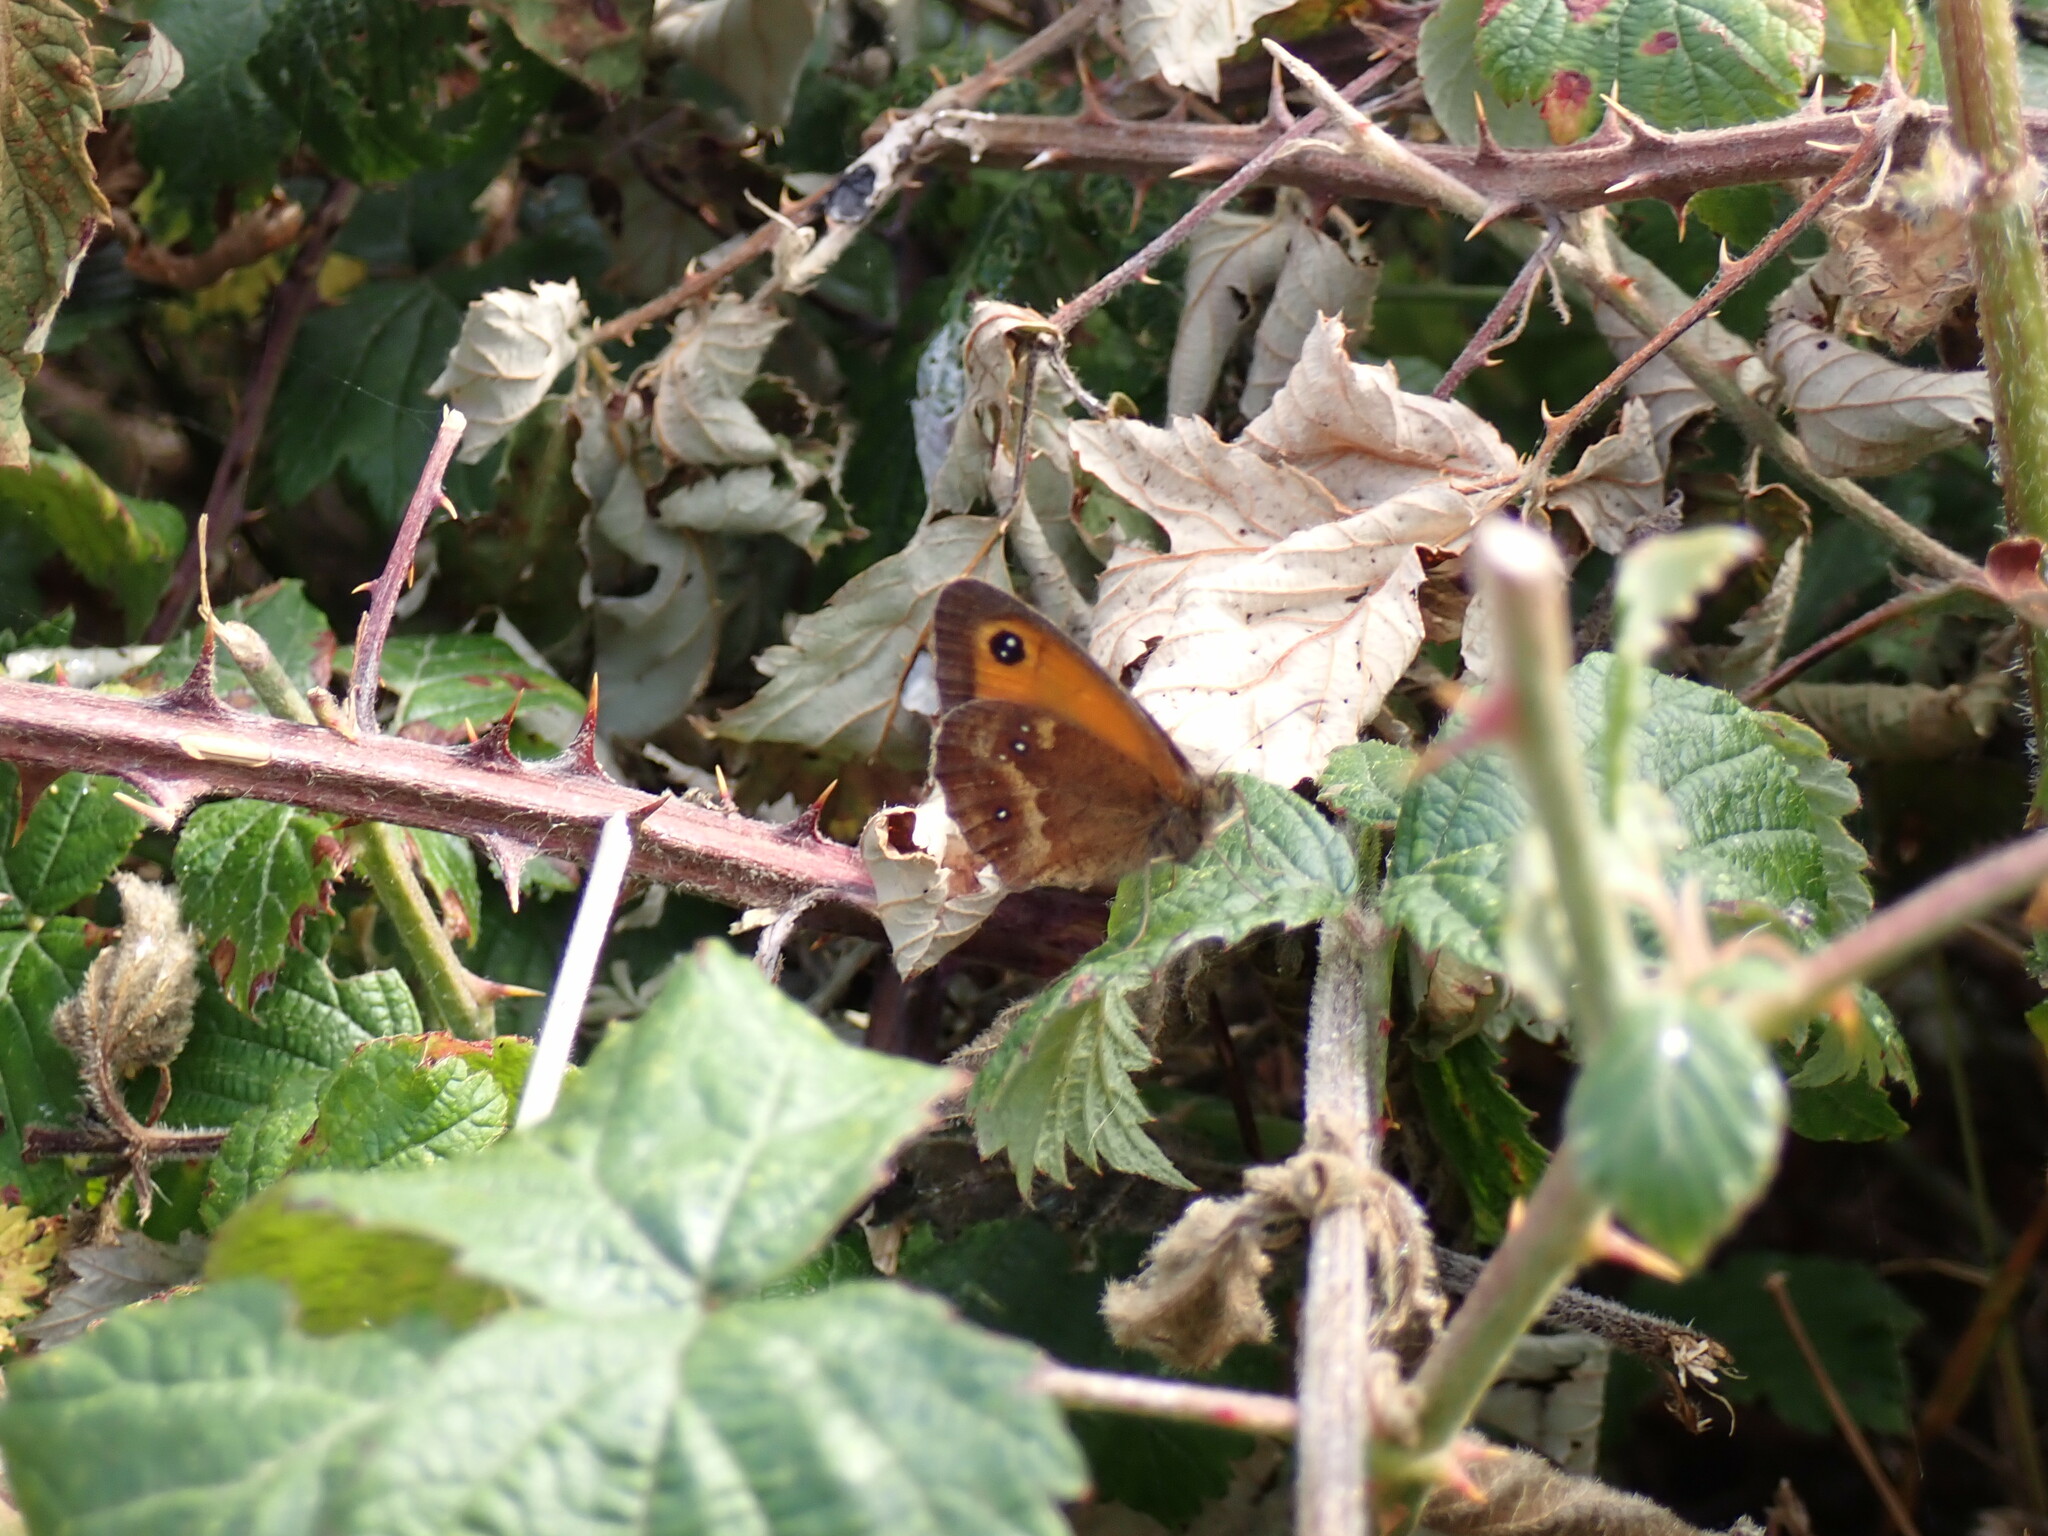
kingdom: Animalia
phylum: Arthropoda
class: Insecta
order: Lepidoptera
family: Nymphalidae
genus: Pyronia
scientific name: Pyronia tithonus
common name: Gatekeeper
